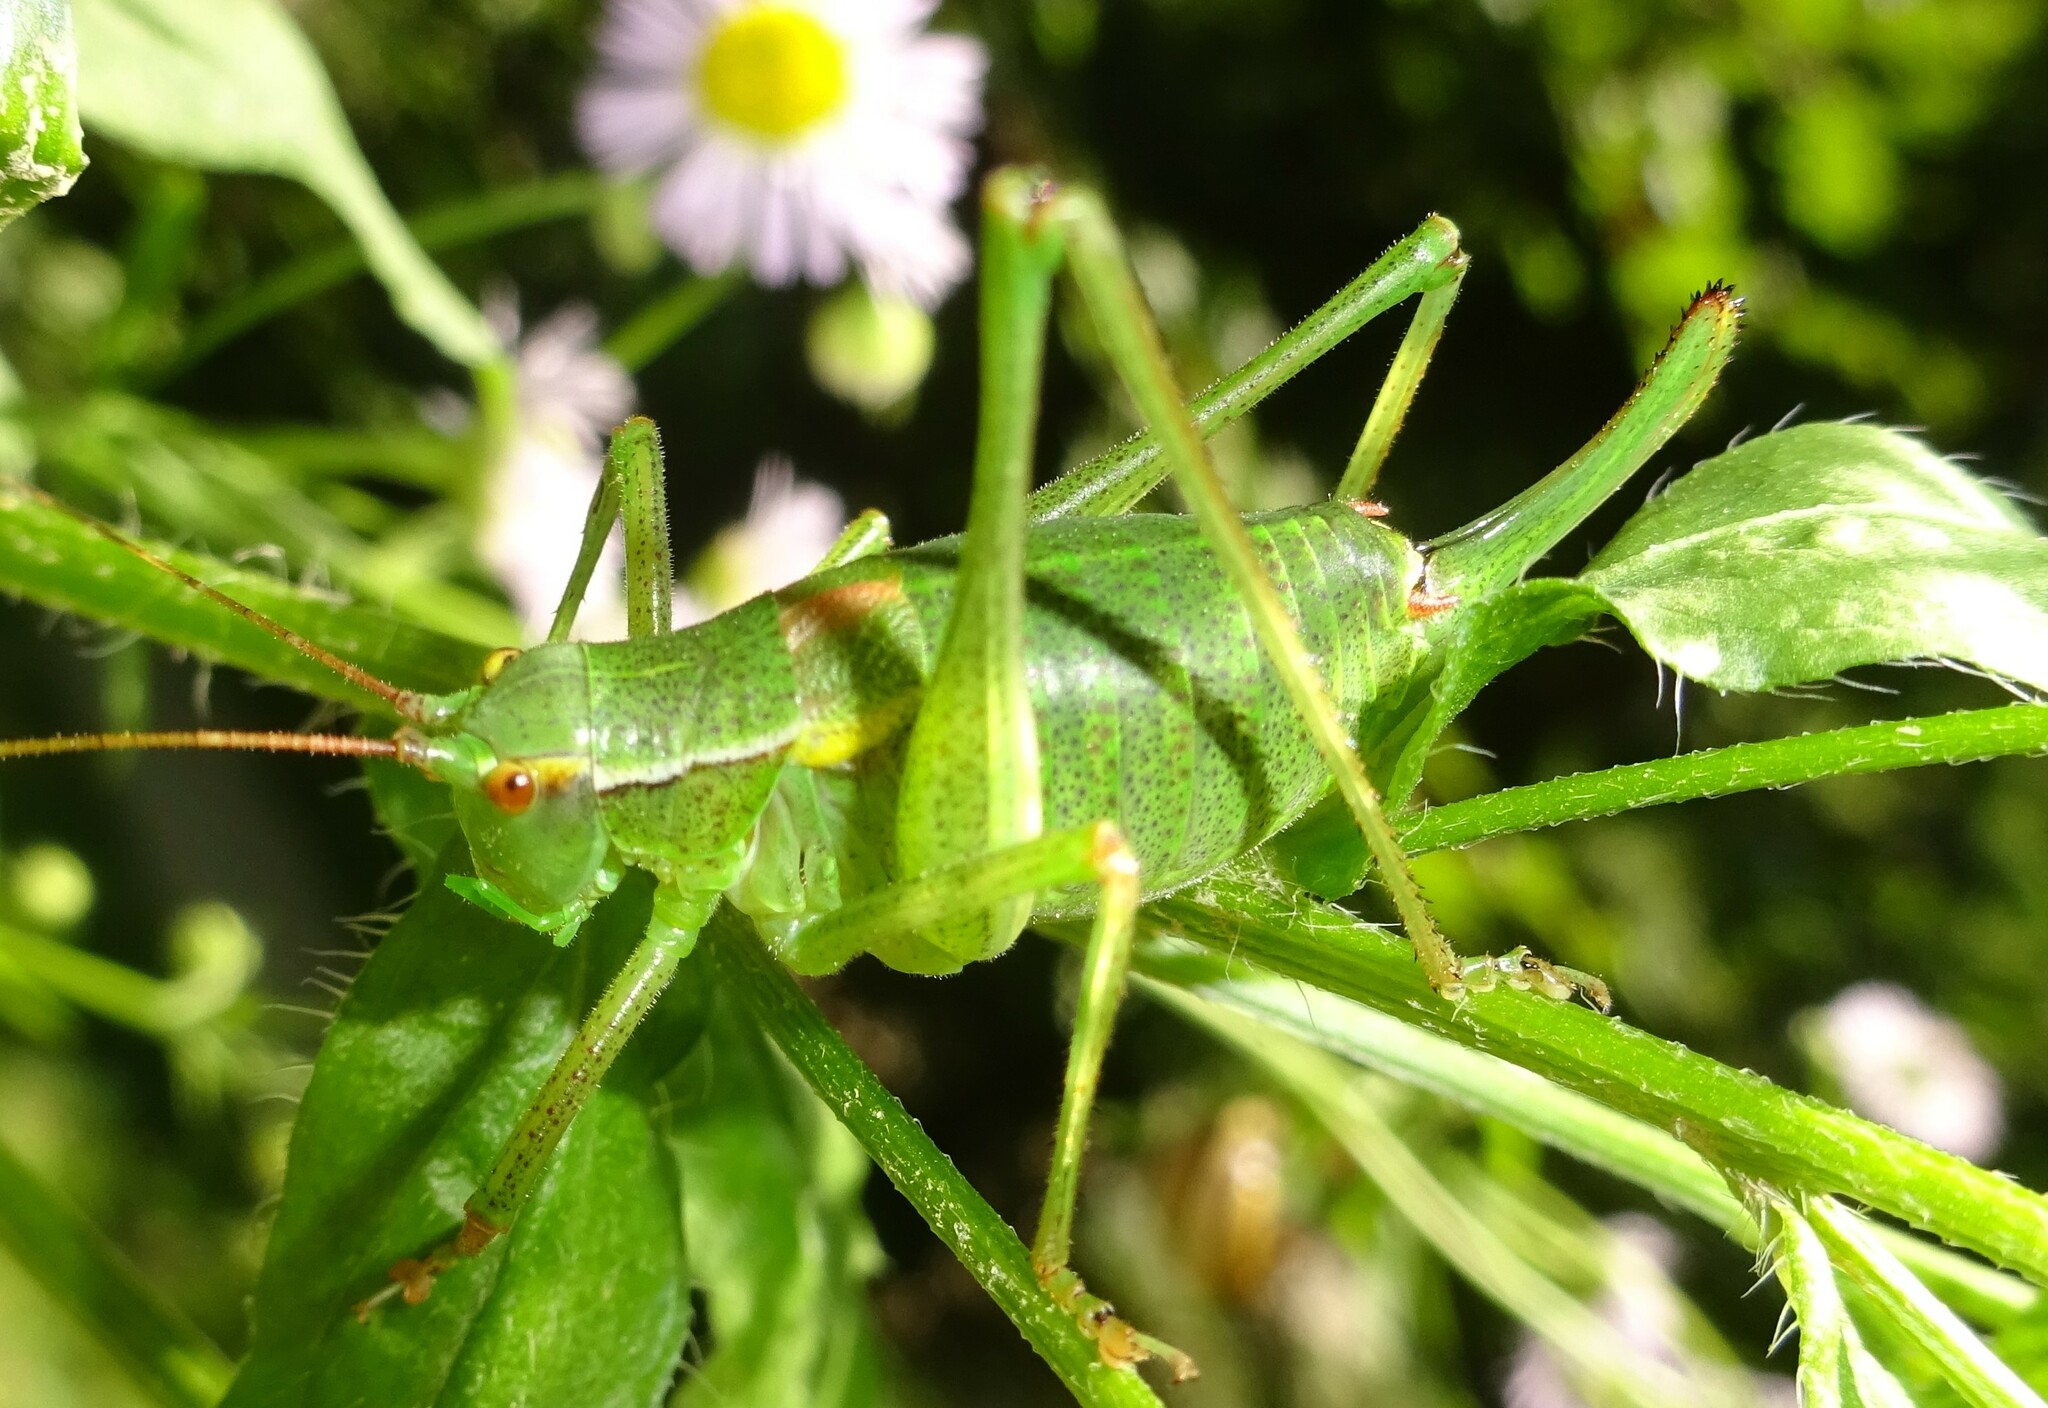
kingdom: Animalia
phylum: Arthropoda
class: Insecta
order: Orthoptera
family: Tettigoniidae
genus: Barbitistes
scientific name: Barbitistes constrictus
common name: Eastern saw-tailed bush cricket
